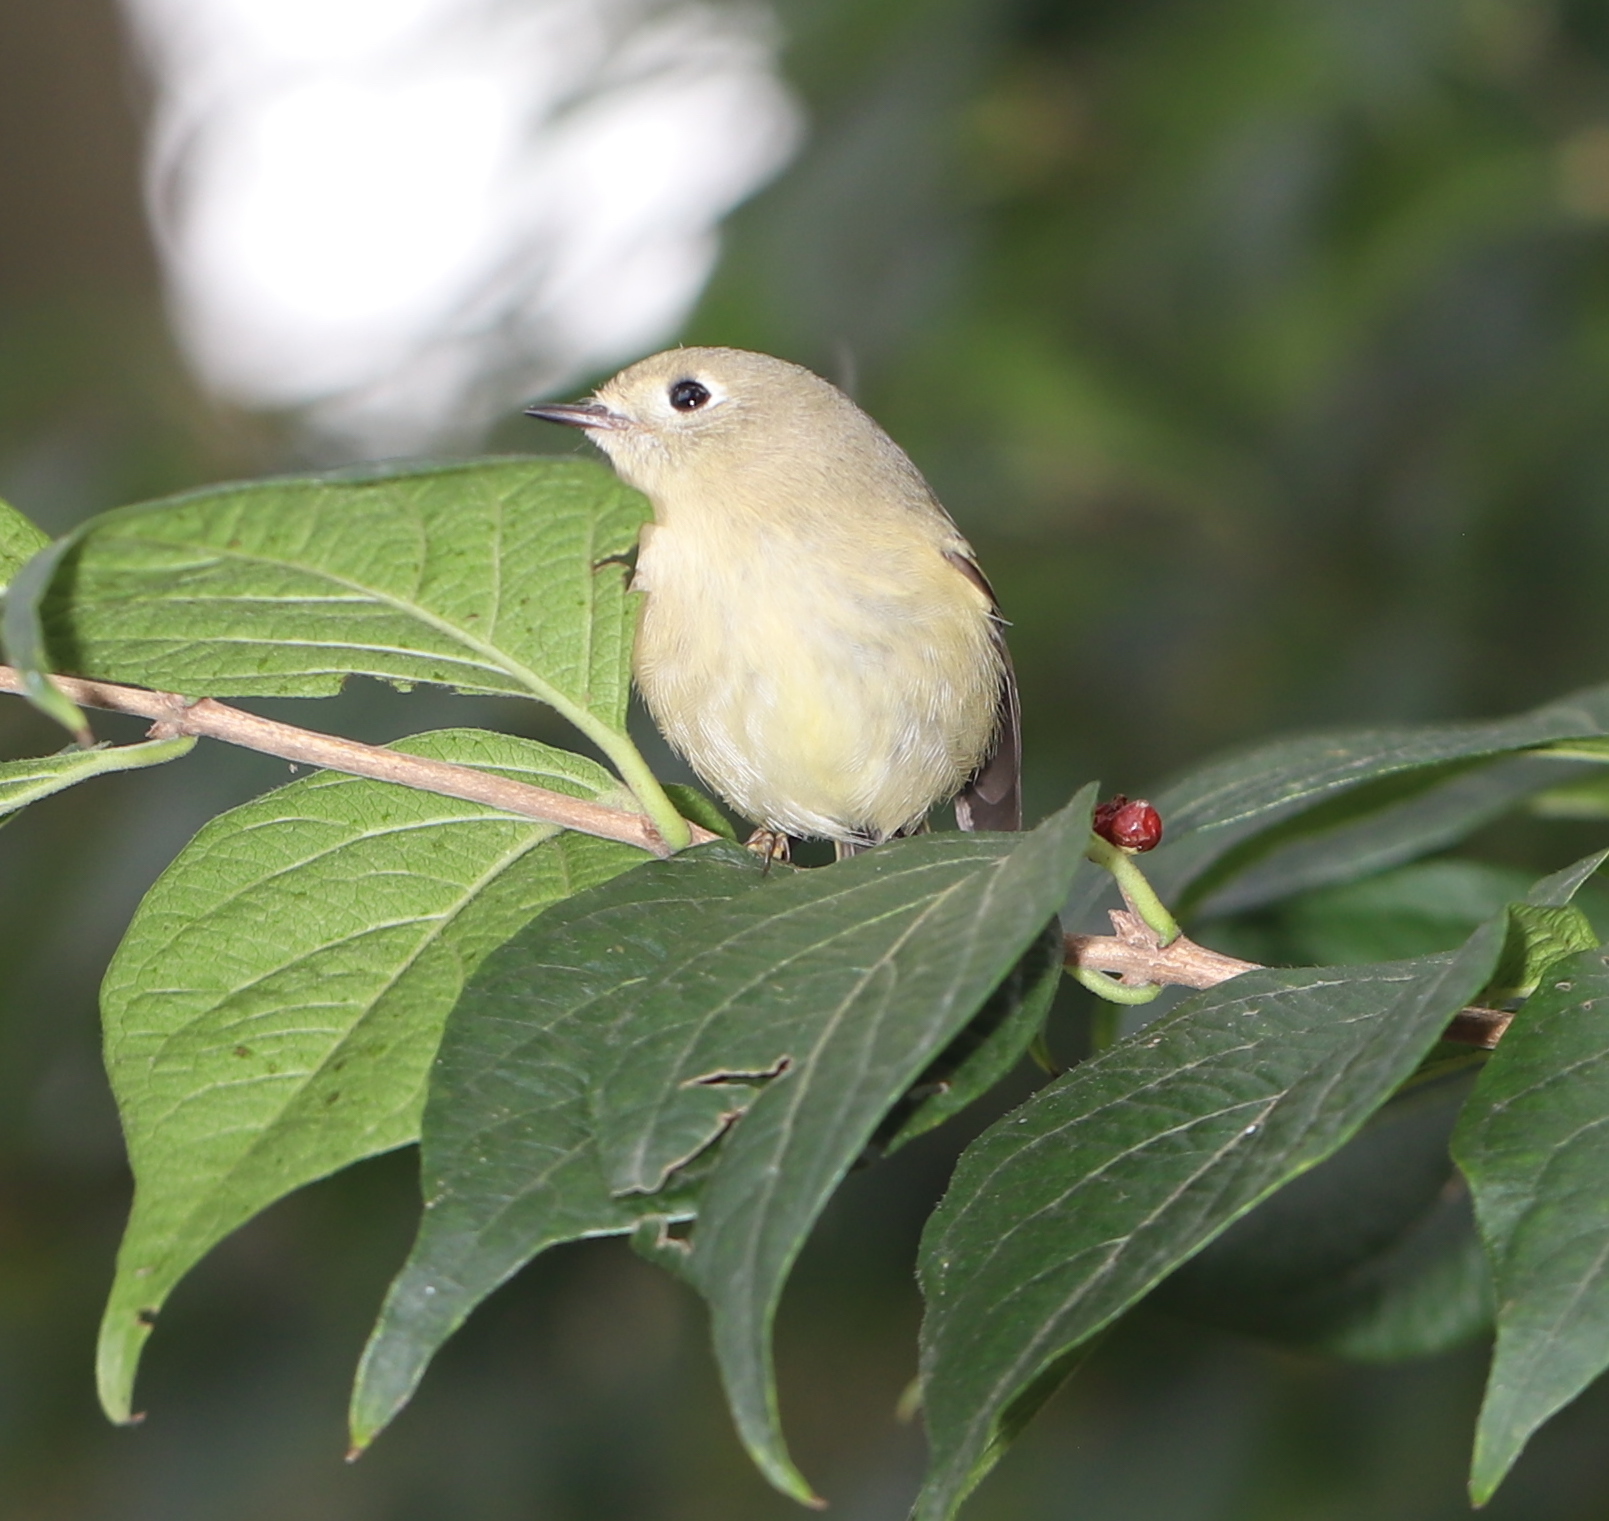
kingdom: Animalia
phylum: Chordata
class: Aves
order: Passeriformes
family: Regulidae
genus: Regulus
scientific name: Regulus calendula
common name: Ruby-crowned kinglet
